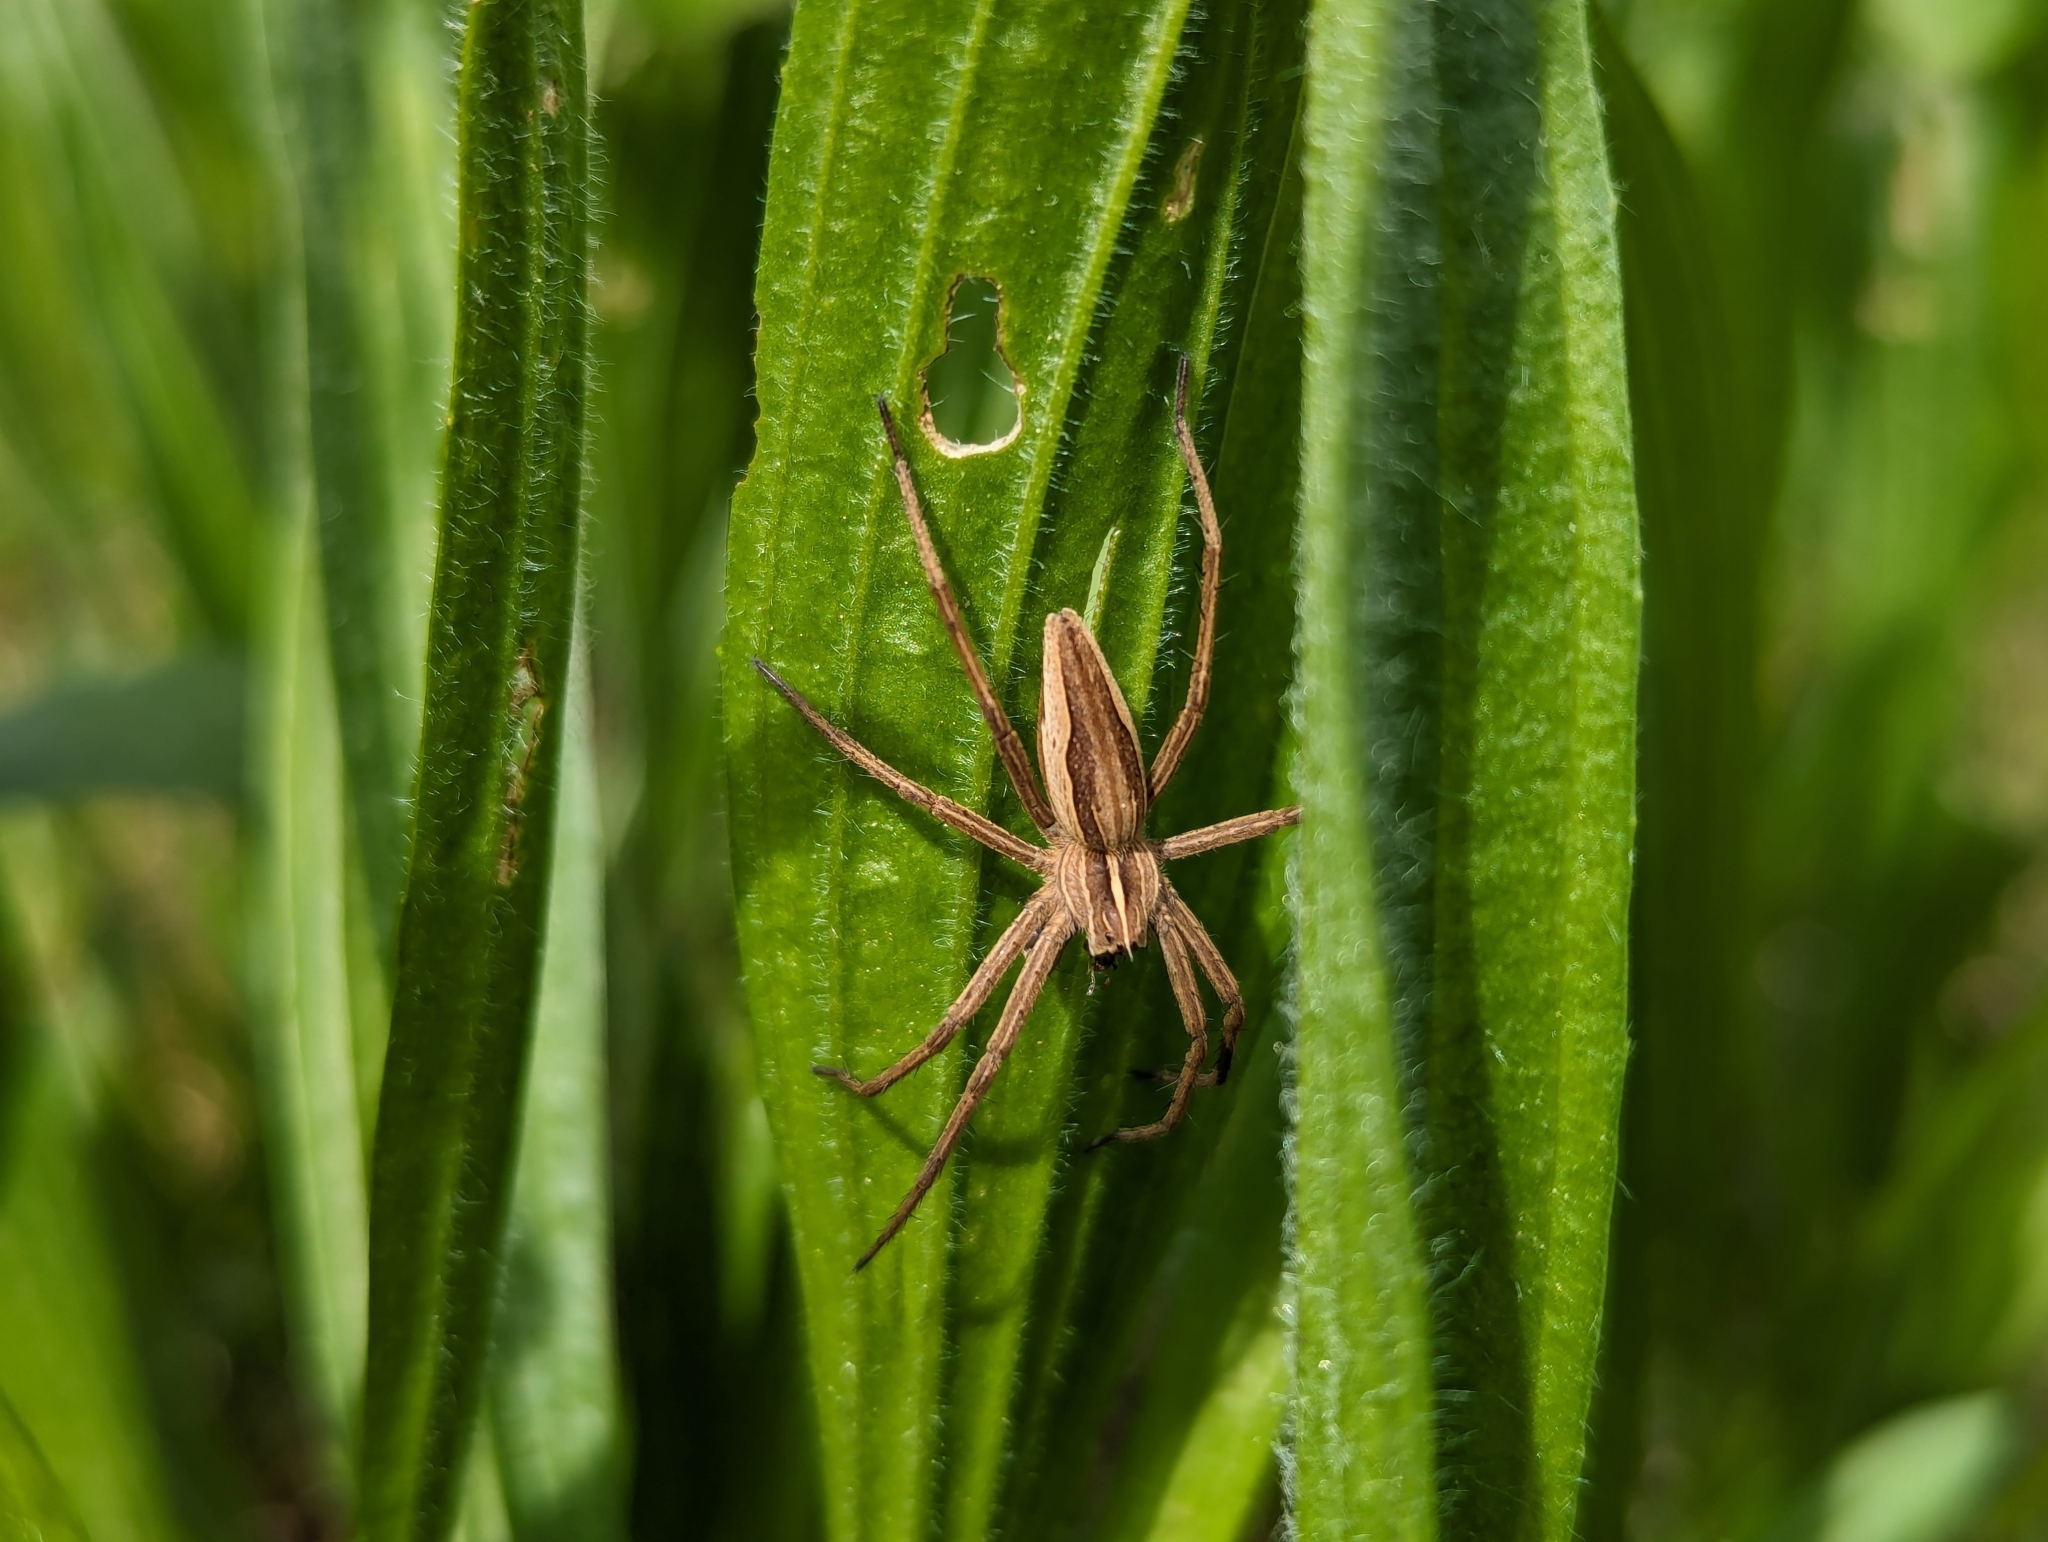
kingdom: Animalia
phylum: Arthropoda
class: Arachnida
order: Araneae
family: Pisauridae
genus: Pisaura
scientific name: Pisaura mirabilis
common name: Tent spider
